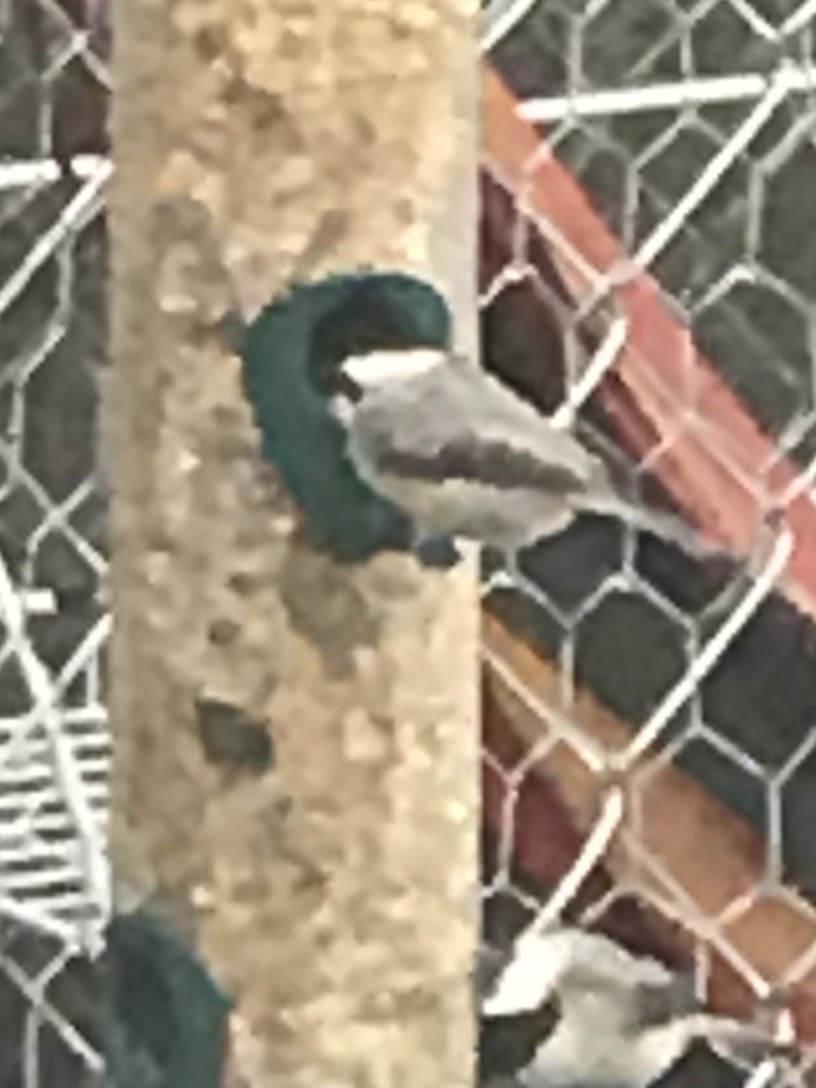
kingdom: Animalia
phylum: Chordata
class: Aves
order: Passeriformes
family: Paridae
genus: Poecile
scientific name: Poecile carolinensis
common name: Carolina chickadee
